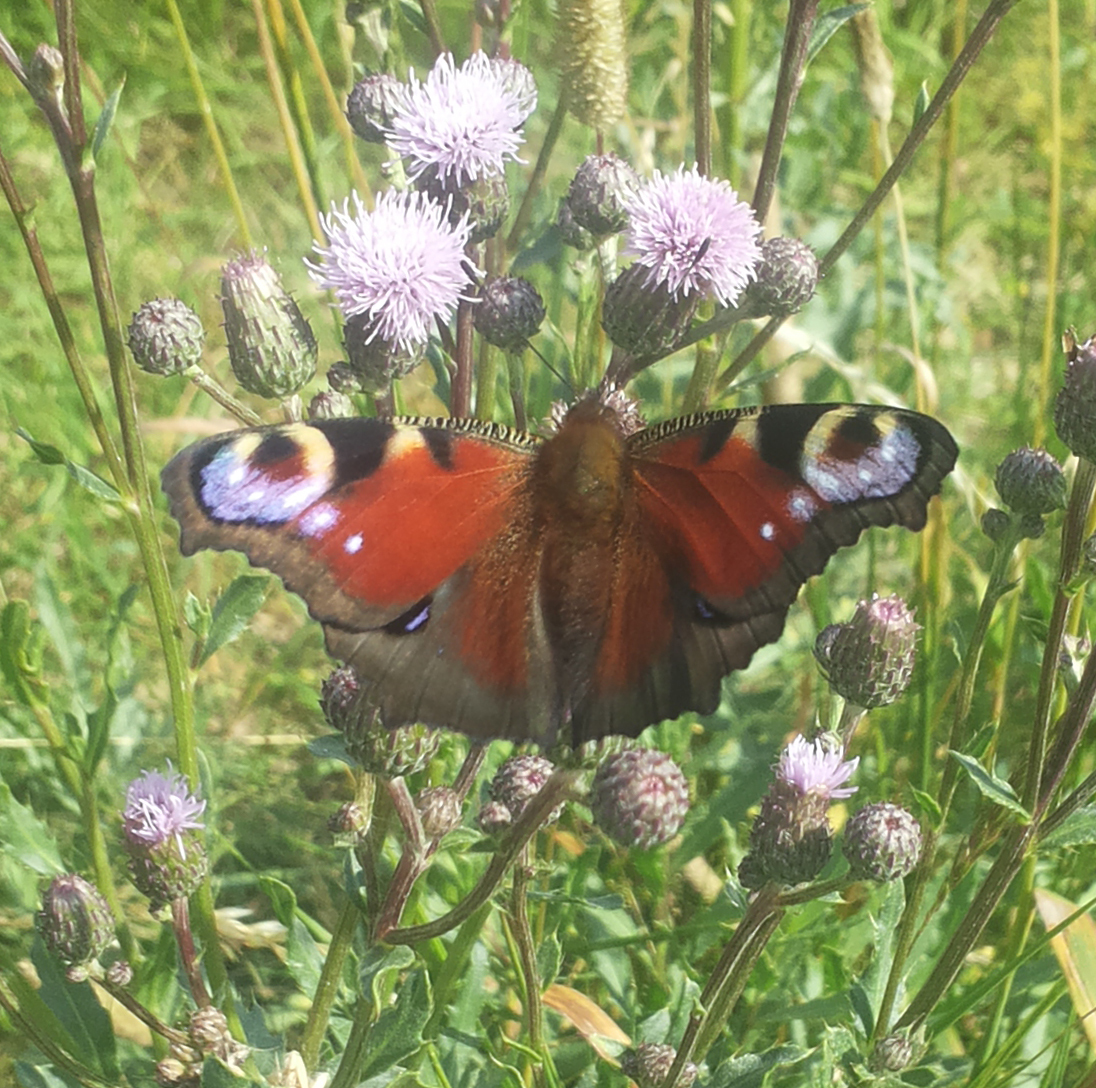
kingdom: Animalia
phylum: Arthropoda
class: Insecta
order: Lepidoptera
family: Nymphalidae
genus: Aglais
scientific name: Aglais io
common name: Peacock
